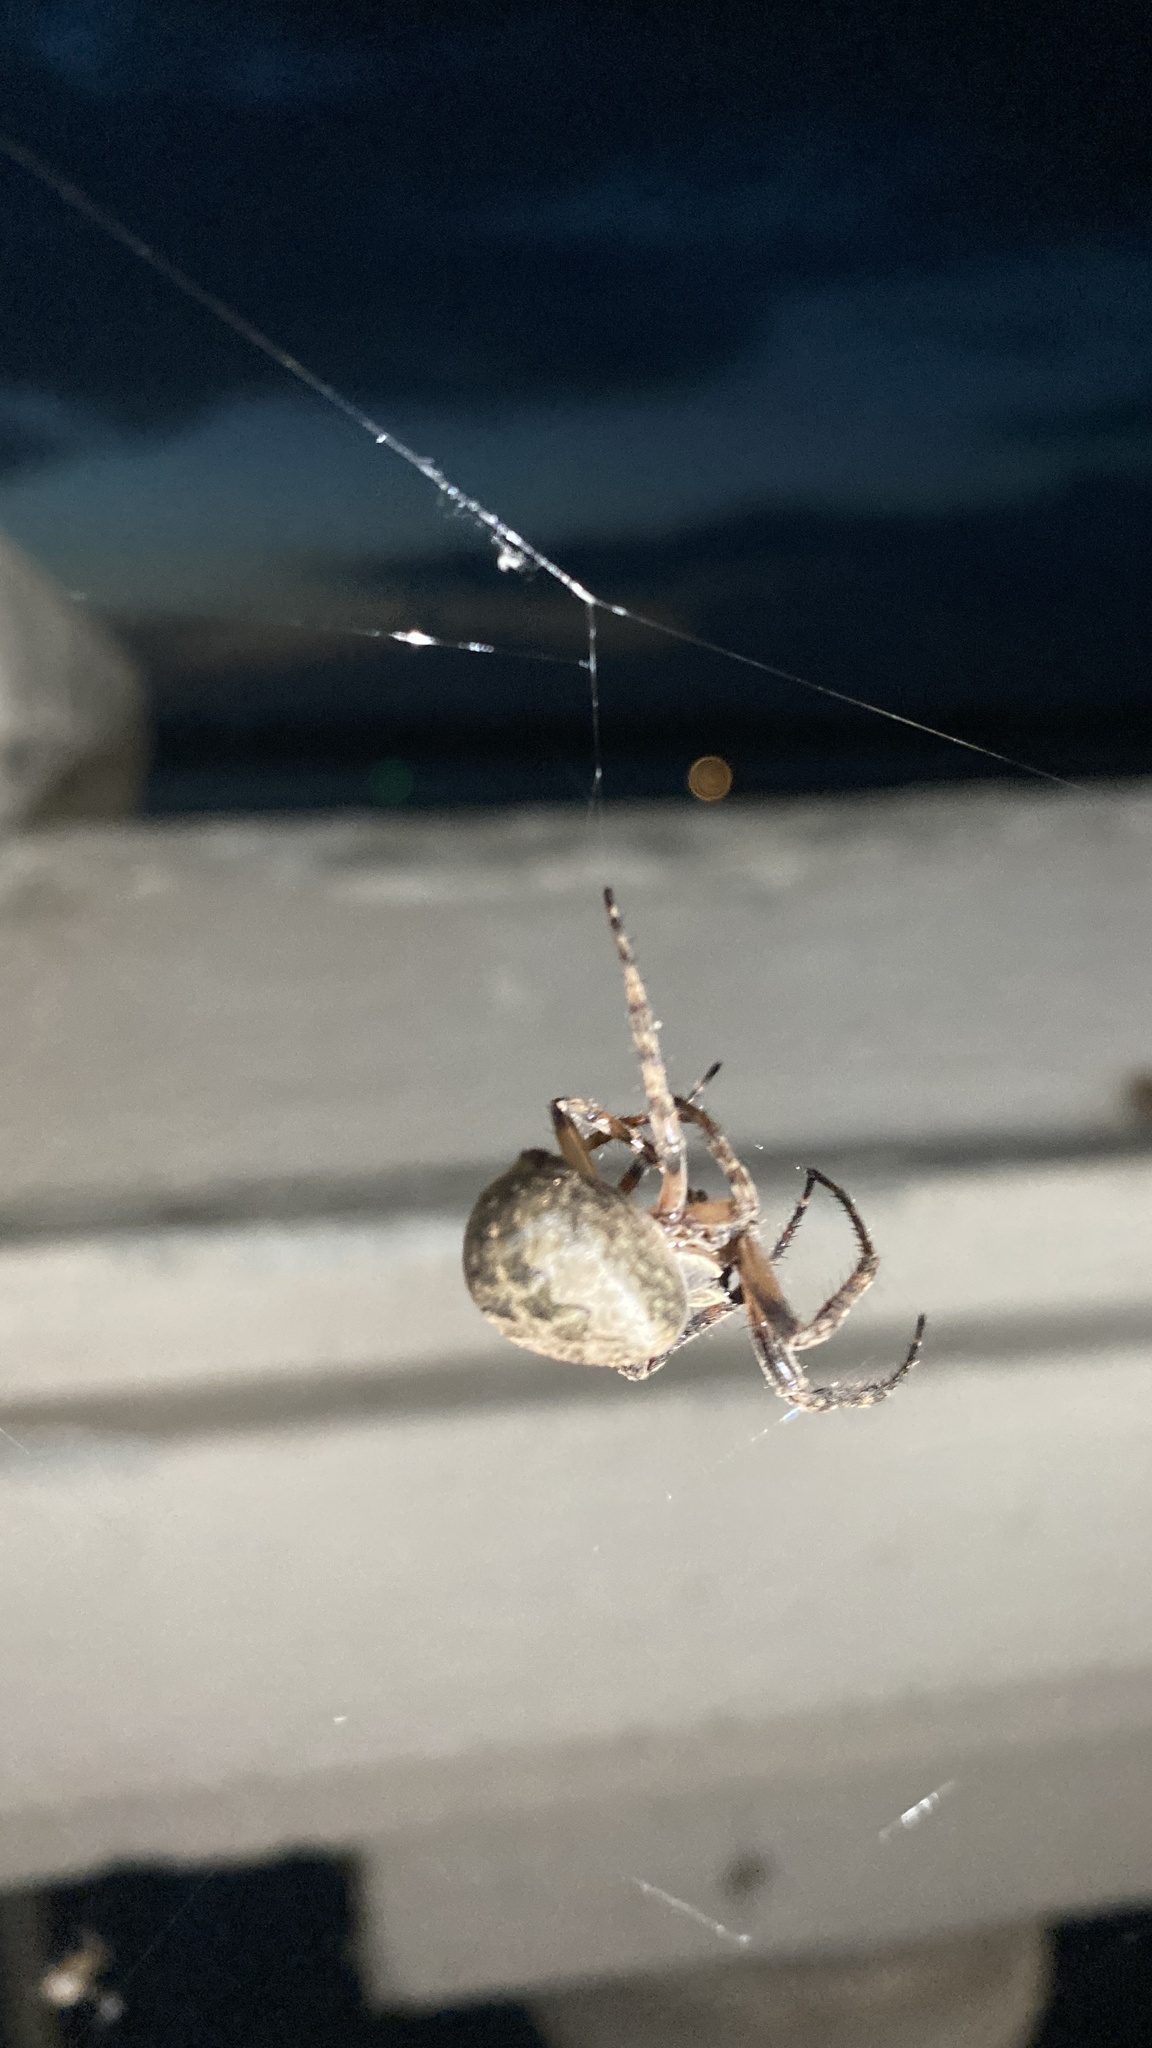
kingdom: Animalia
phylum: Arthropoda
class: Arachnida
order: Araneae
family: Araneidae
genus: Larinioides
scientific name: Larinioides ixobolus
